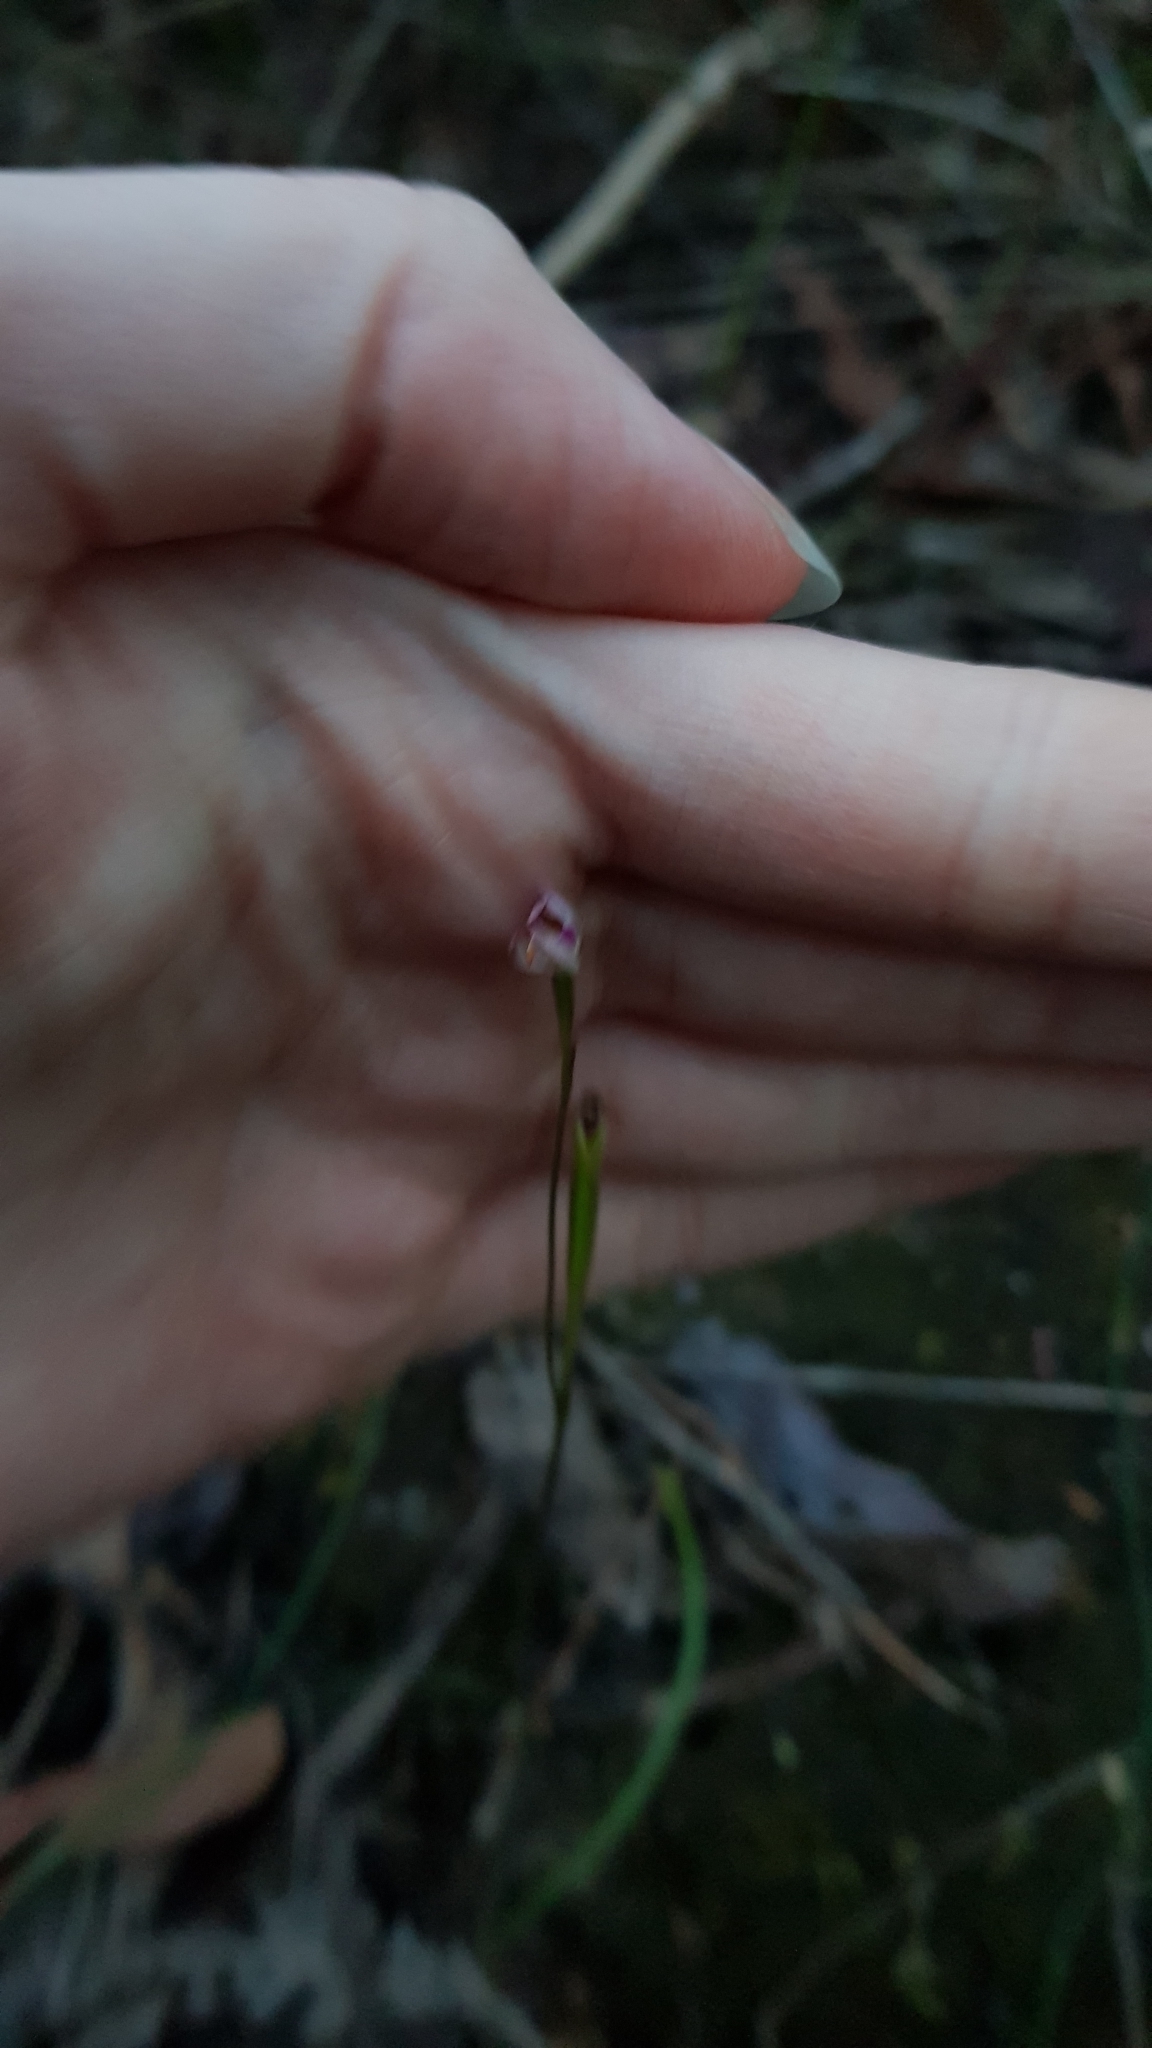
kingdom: Plantae
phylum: Tracheophyta
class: Liliopsida
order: Asparagales
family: Orchidaceae
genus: Caladenia
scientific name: Caladenia alata
